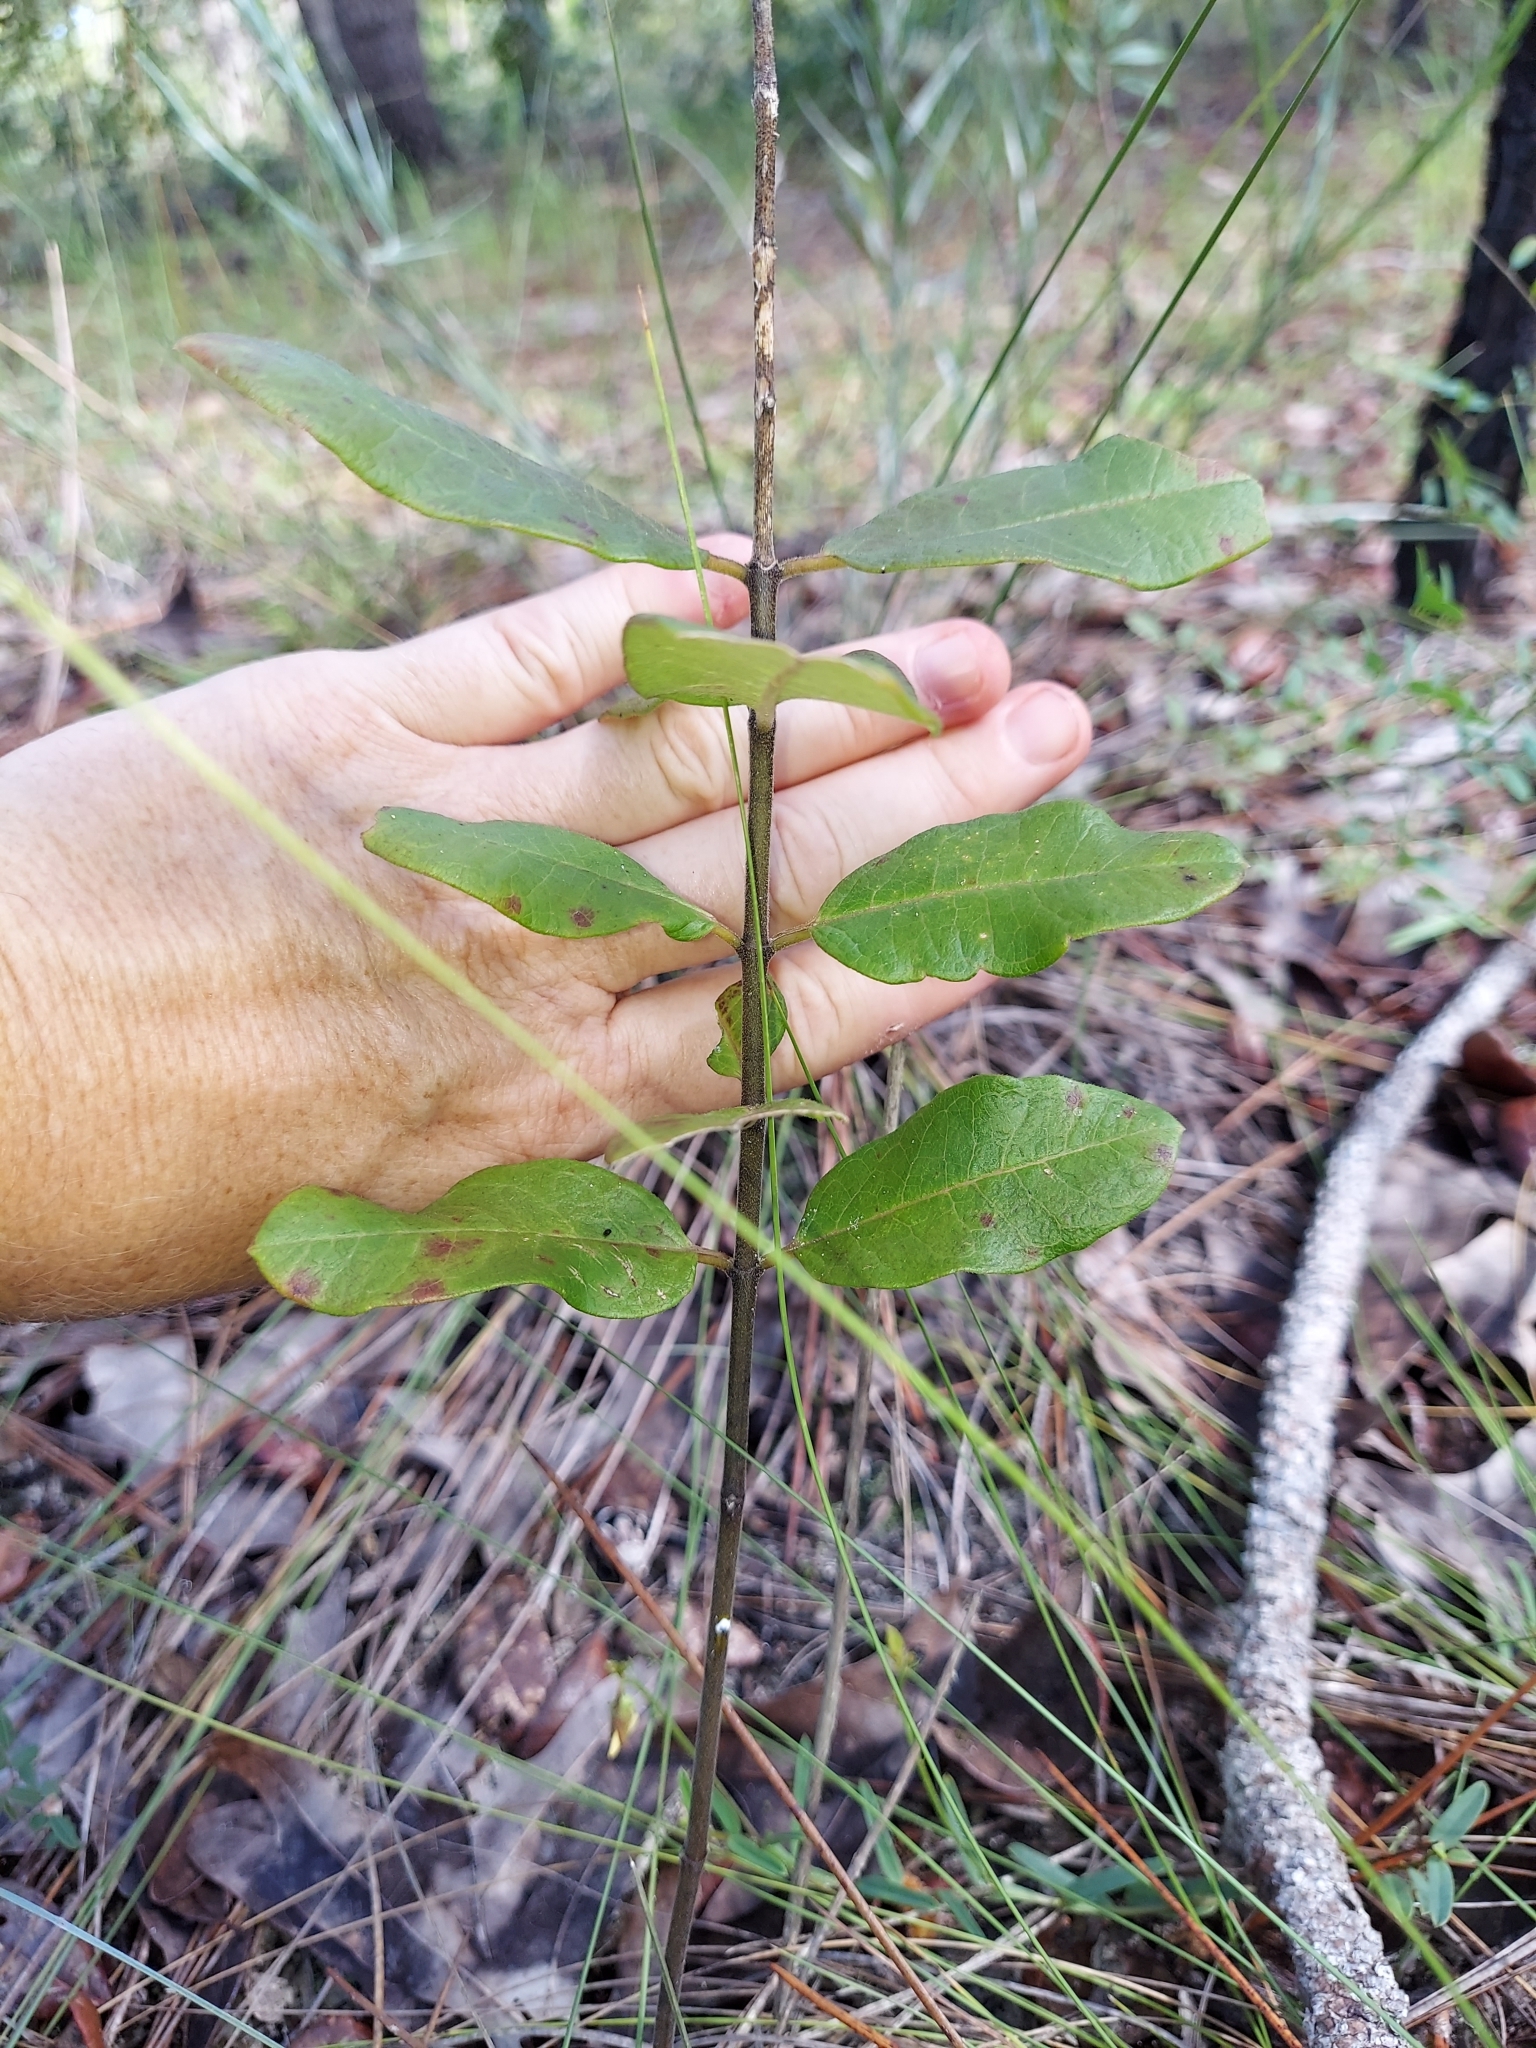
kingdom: Plantae
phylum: Tracheophyta
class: Magnoliopsida
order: Gentianales
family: Apocynaceae
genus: Asclepias
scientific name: Asclepias tomentosa
